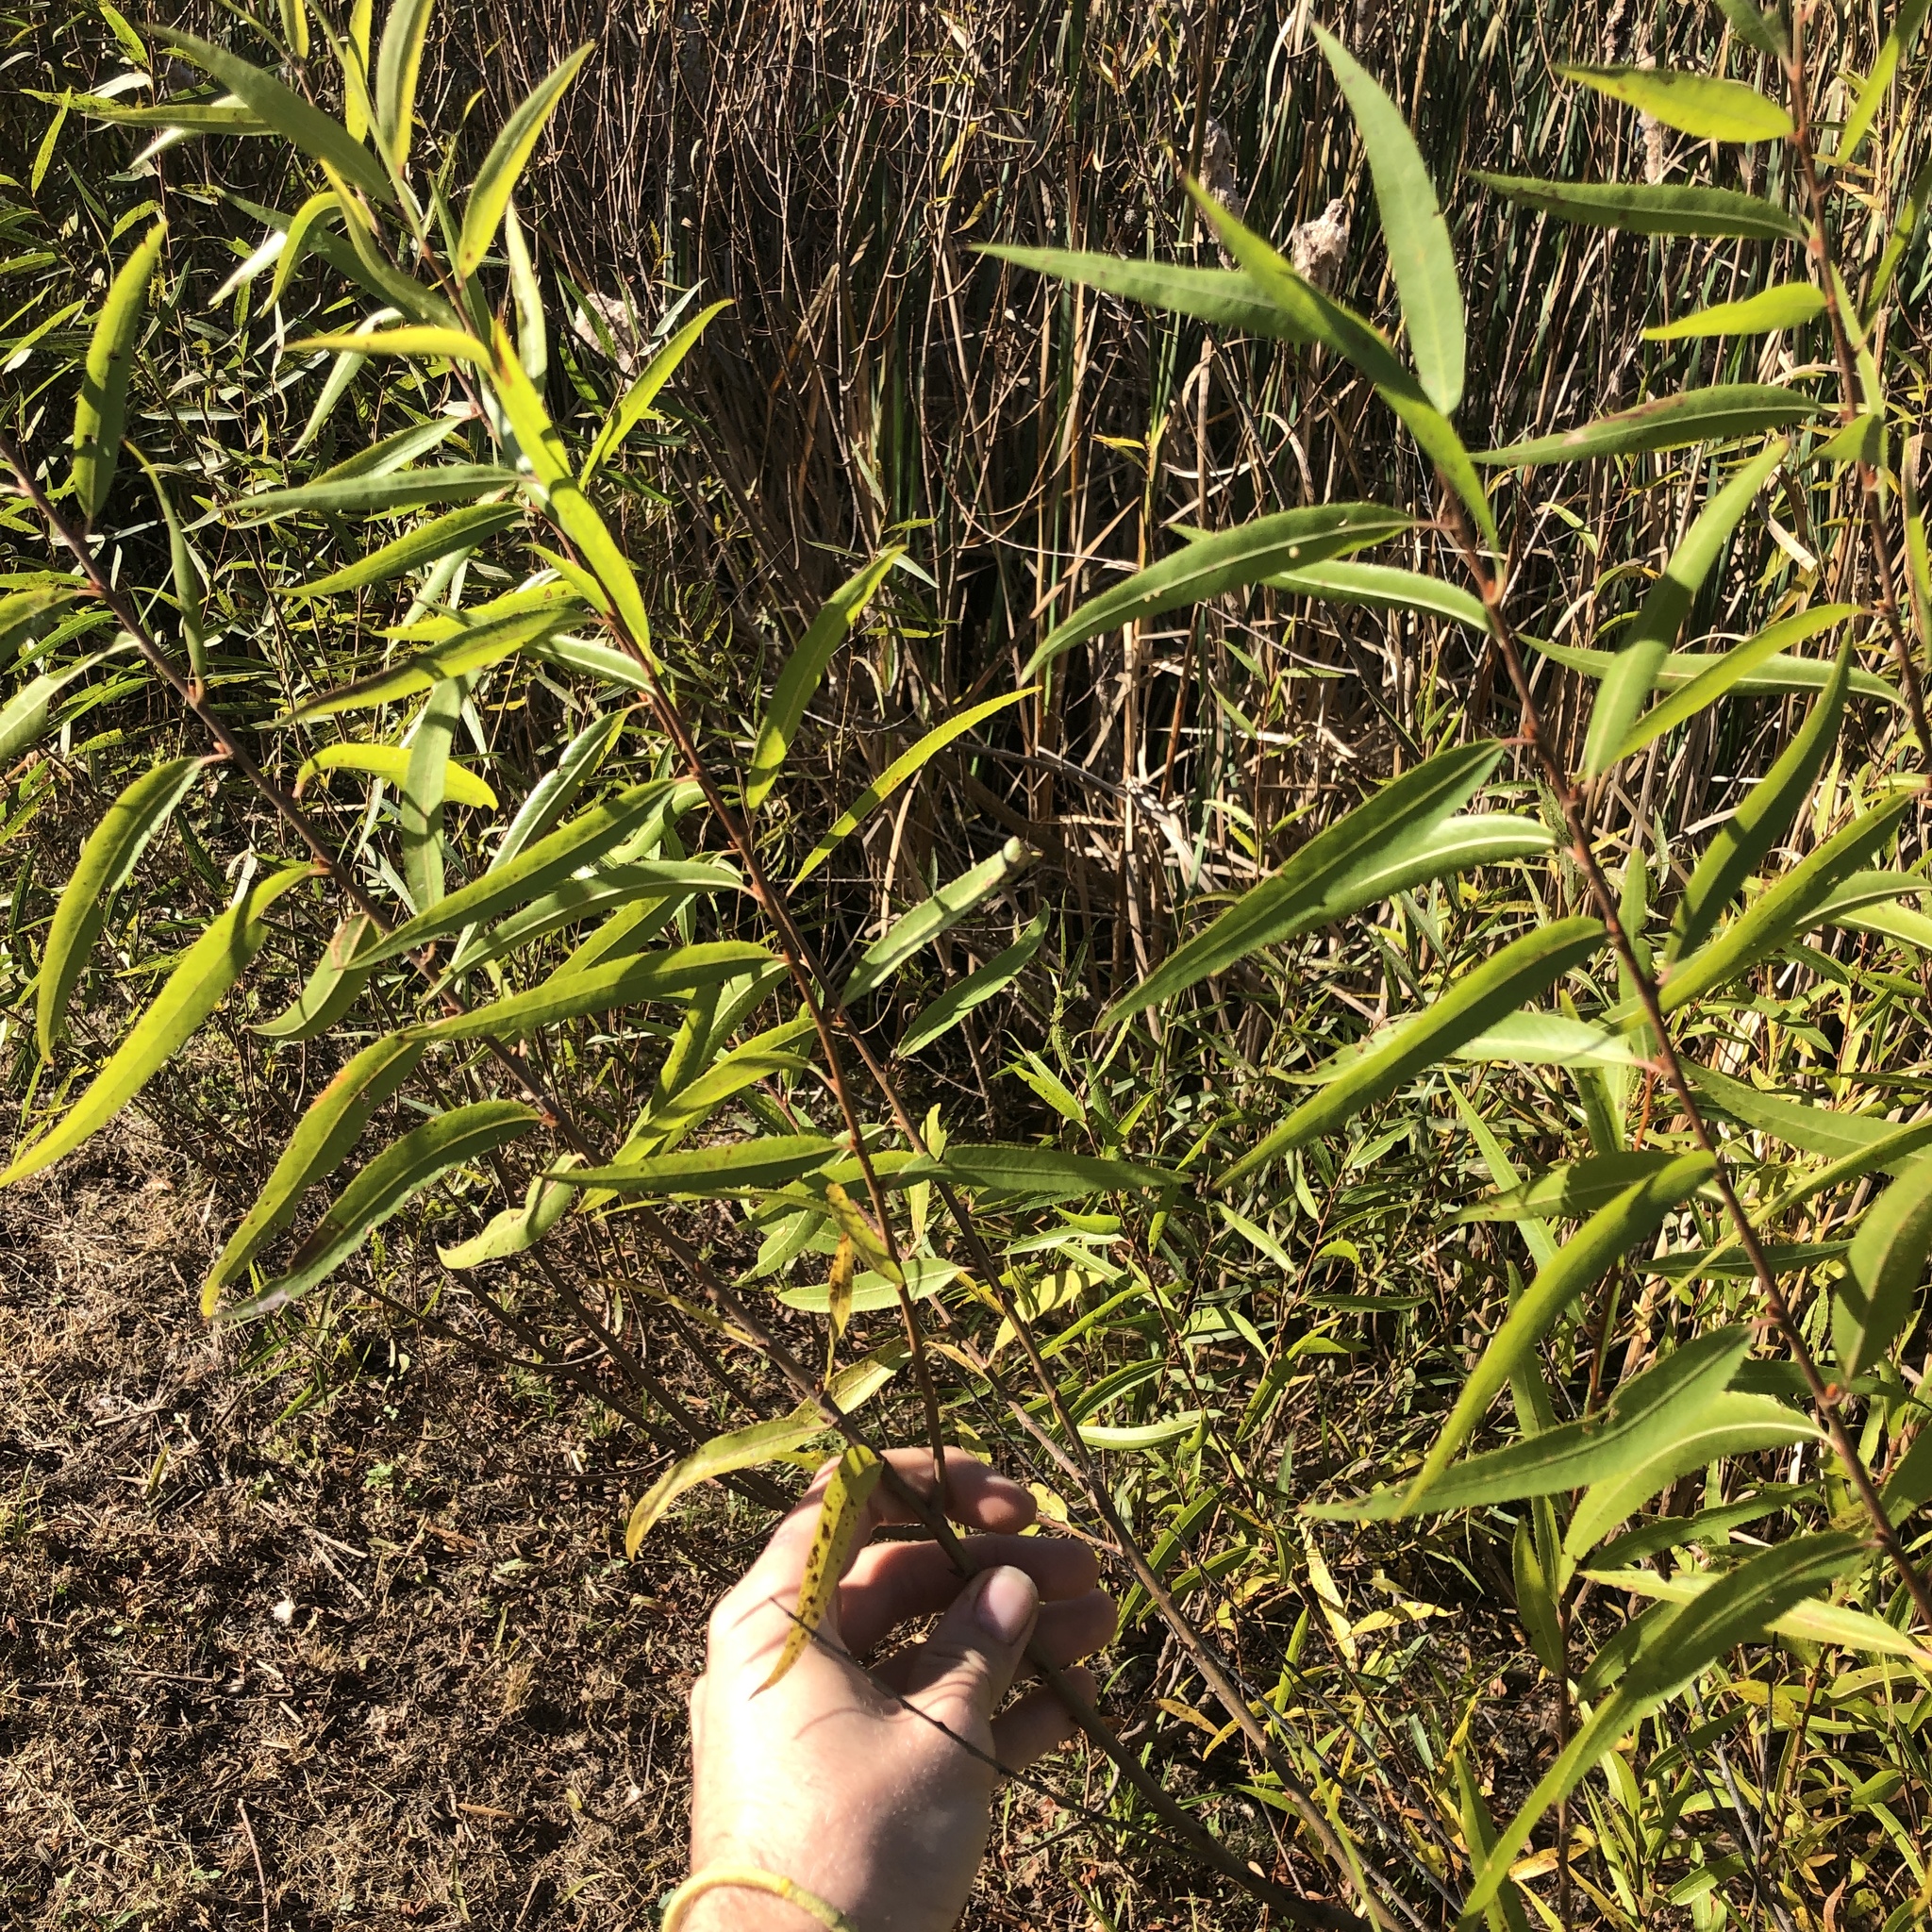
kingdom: Plantae
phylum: Tracheophyta
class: Magnoliopsida
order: Malpighiales
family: Salicaceae
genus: Salix
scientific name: Salix nigra
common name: Black willow
